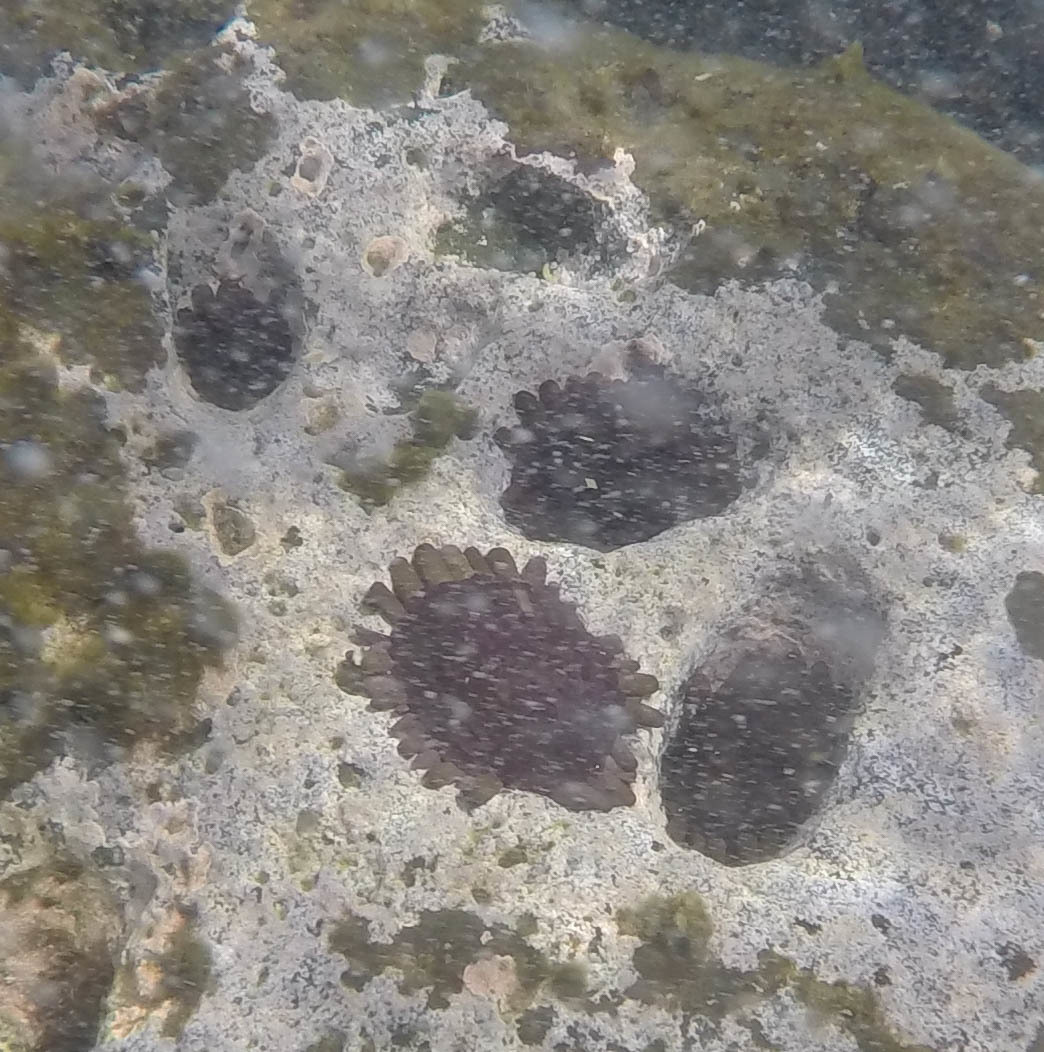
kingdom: Animalia
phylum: Echinodermata
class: Echinoidea
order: Camarodonta
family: Echinometridae
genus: Colobocentrotus
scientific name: Colobocentrotus atratus
